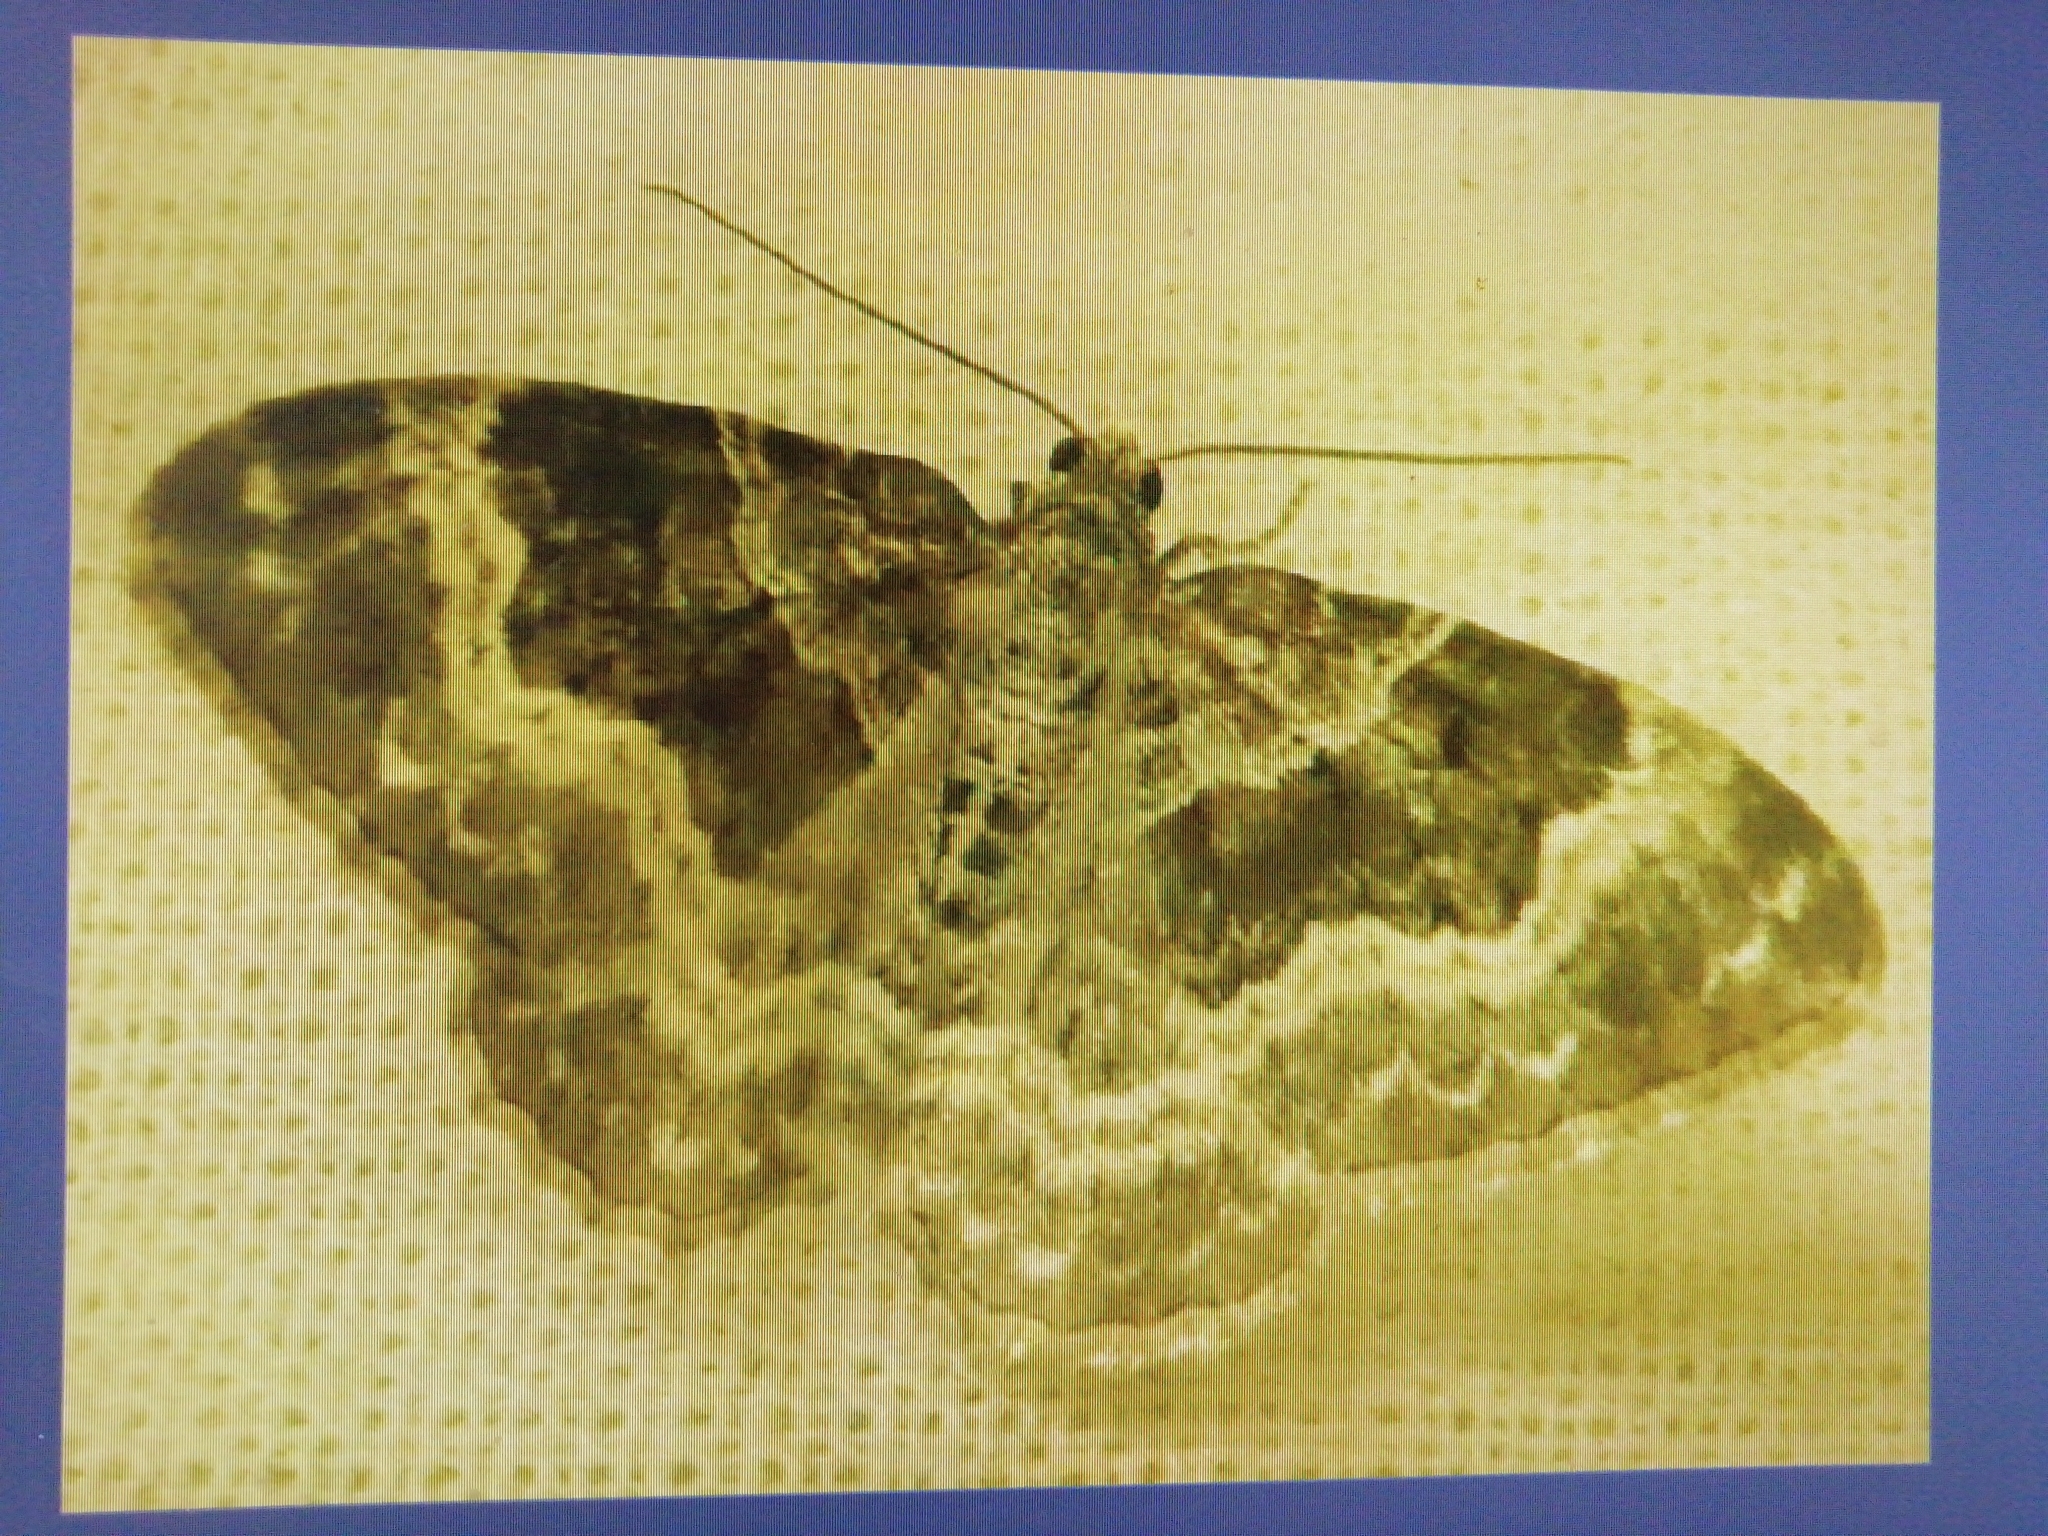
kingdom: Animalia
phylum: Arthropoda
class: Insecta
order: Lepidoptera
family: Geometridae
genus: Epirrhoe
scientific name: Epirrhoe alternata
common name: Common carpet
